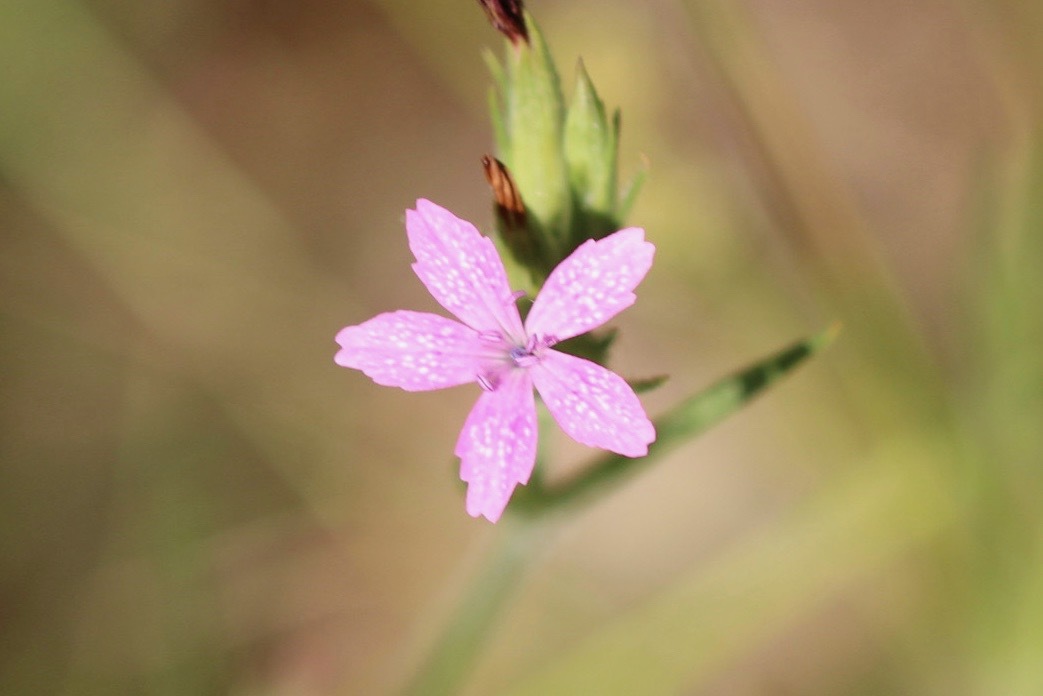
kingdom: Plantae
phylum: Tracheophyta
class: Magnoliopsida
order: Caryophyllales
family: Caryophyllaceae
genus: Dianthus
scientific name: Dianthus armeria
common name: Deptford pink
